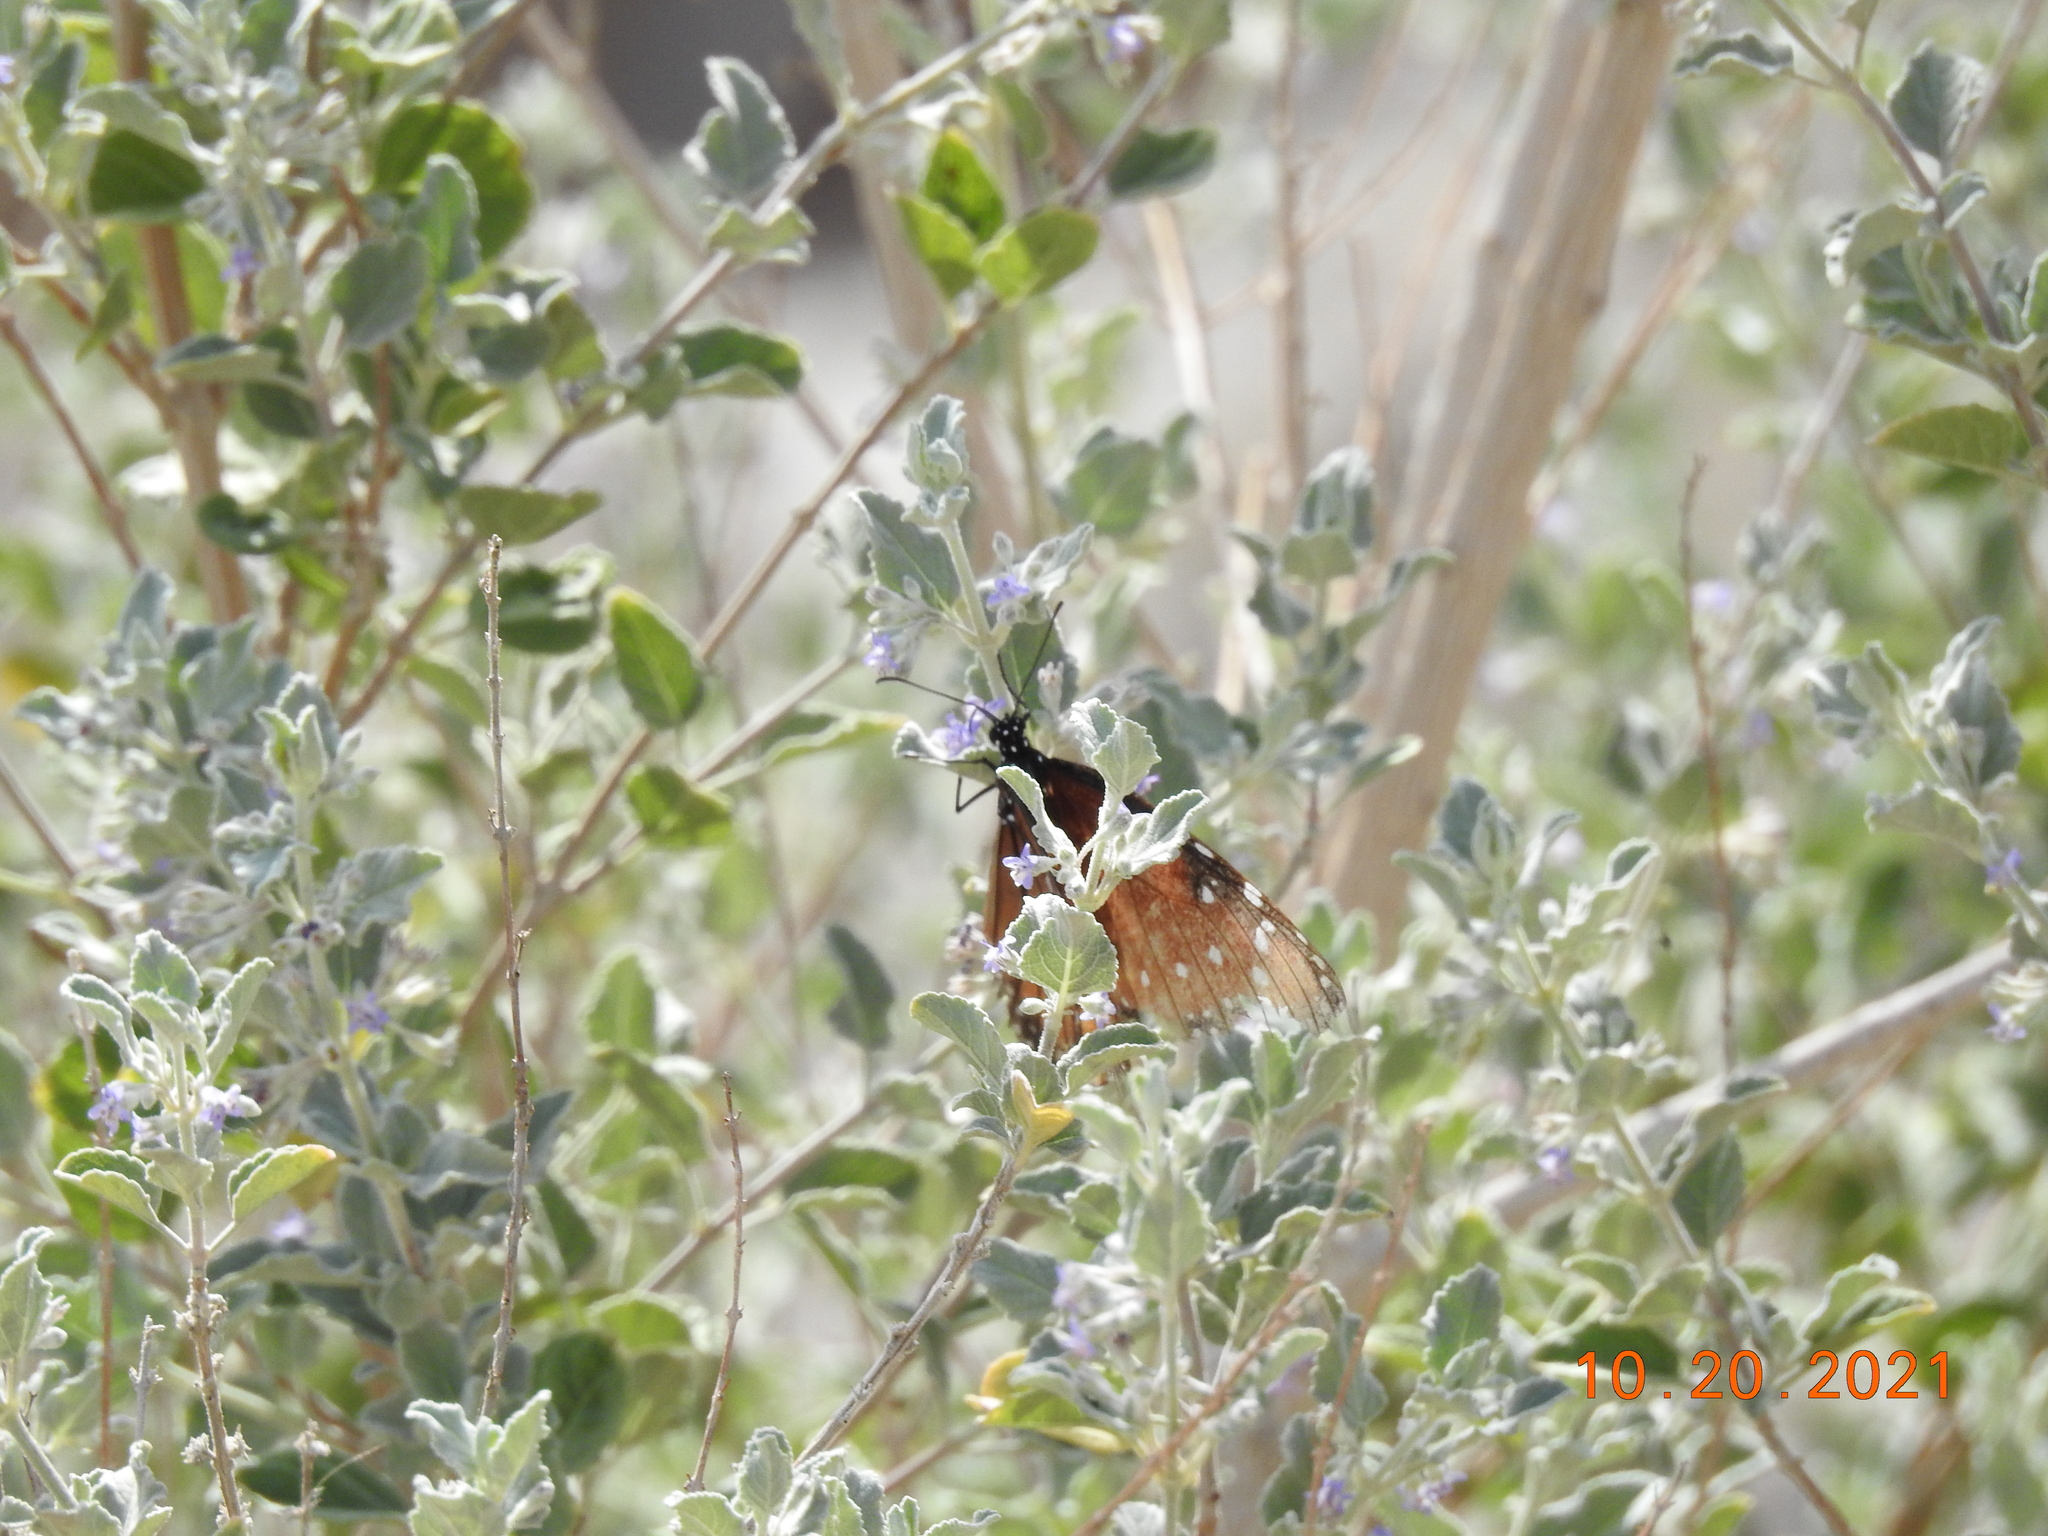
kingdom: Animalia
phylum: Arthropoda
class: Insecta
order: Lepidoptera
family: Nymphalidae
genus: Danaus
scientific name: Danaus gilippus
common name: Queen
